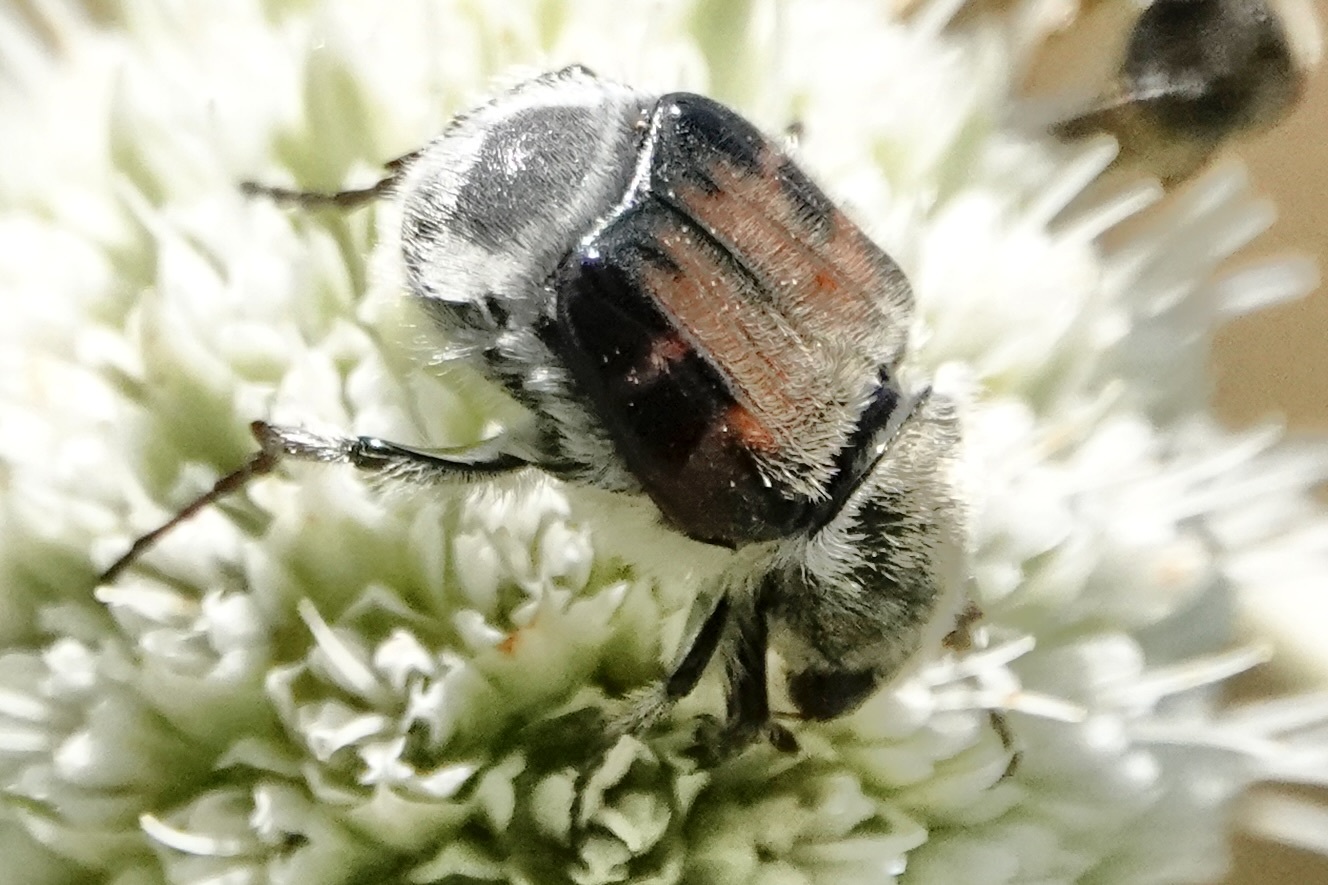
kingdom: Animalia
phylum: Arthropoda
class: Insecta
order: Coleoptera
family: Scarabaeidae
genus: Trichiotinus
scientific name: Trichiotinus piger
